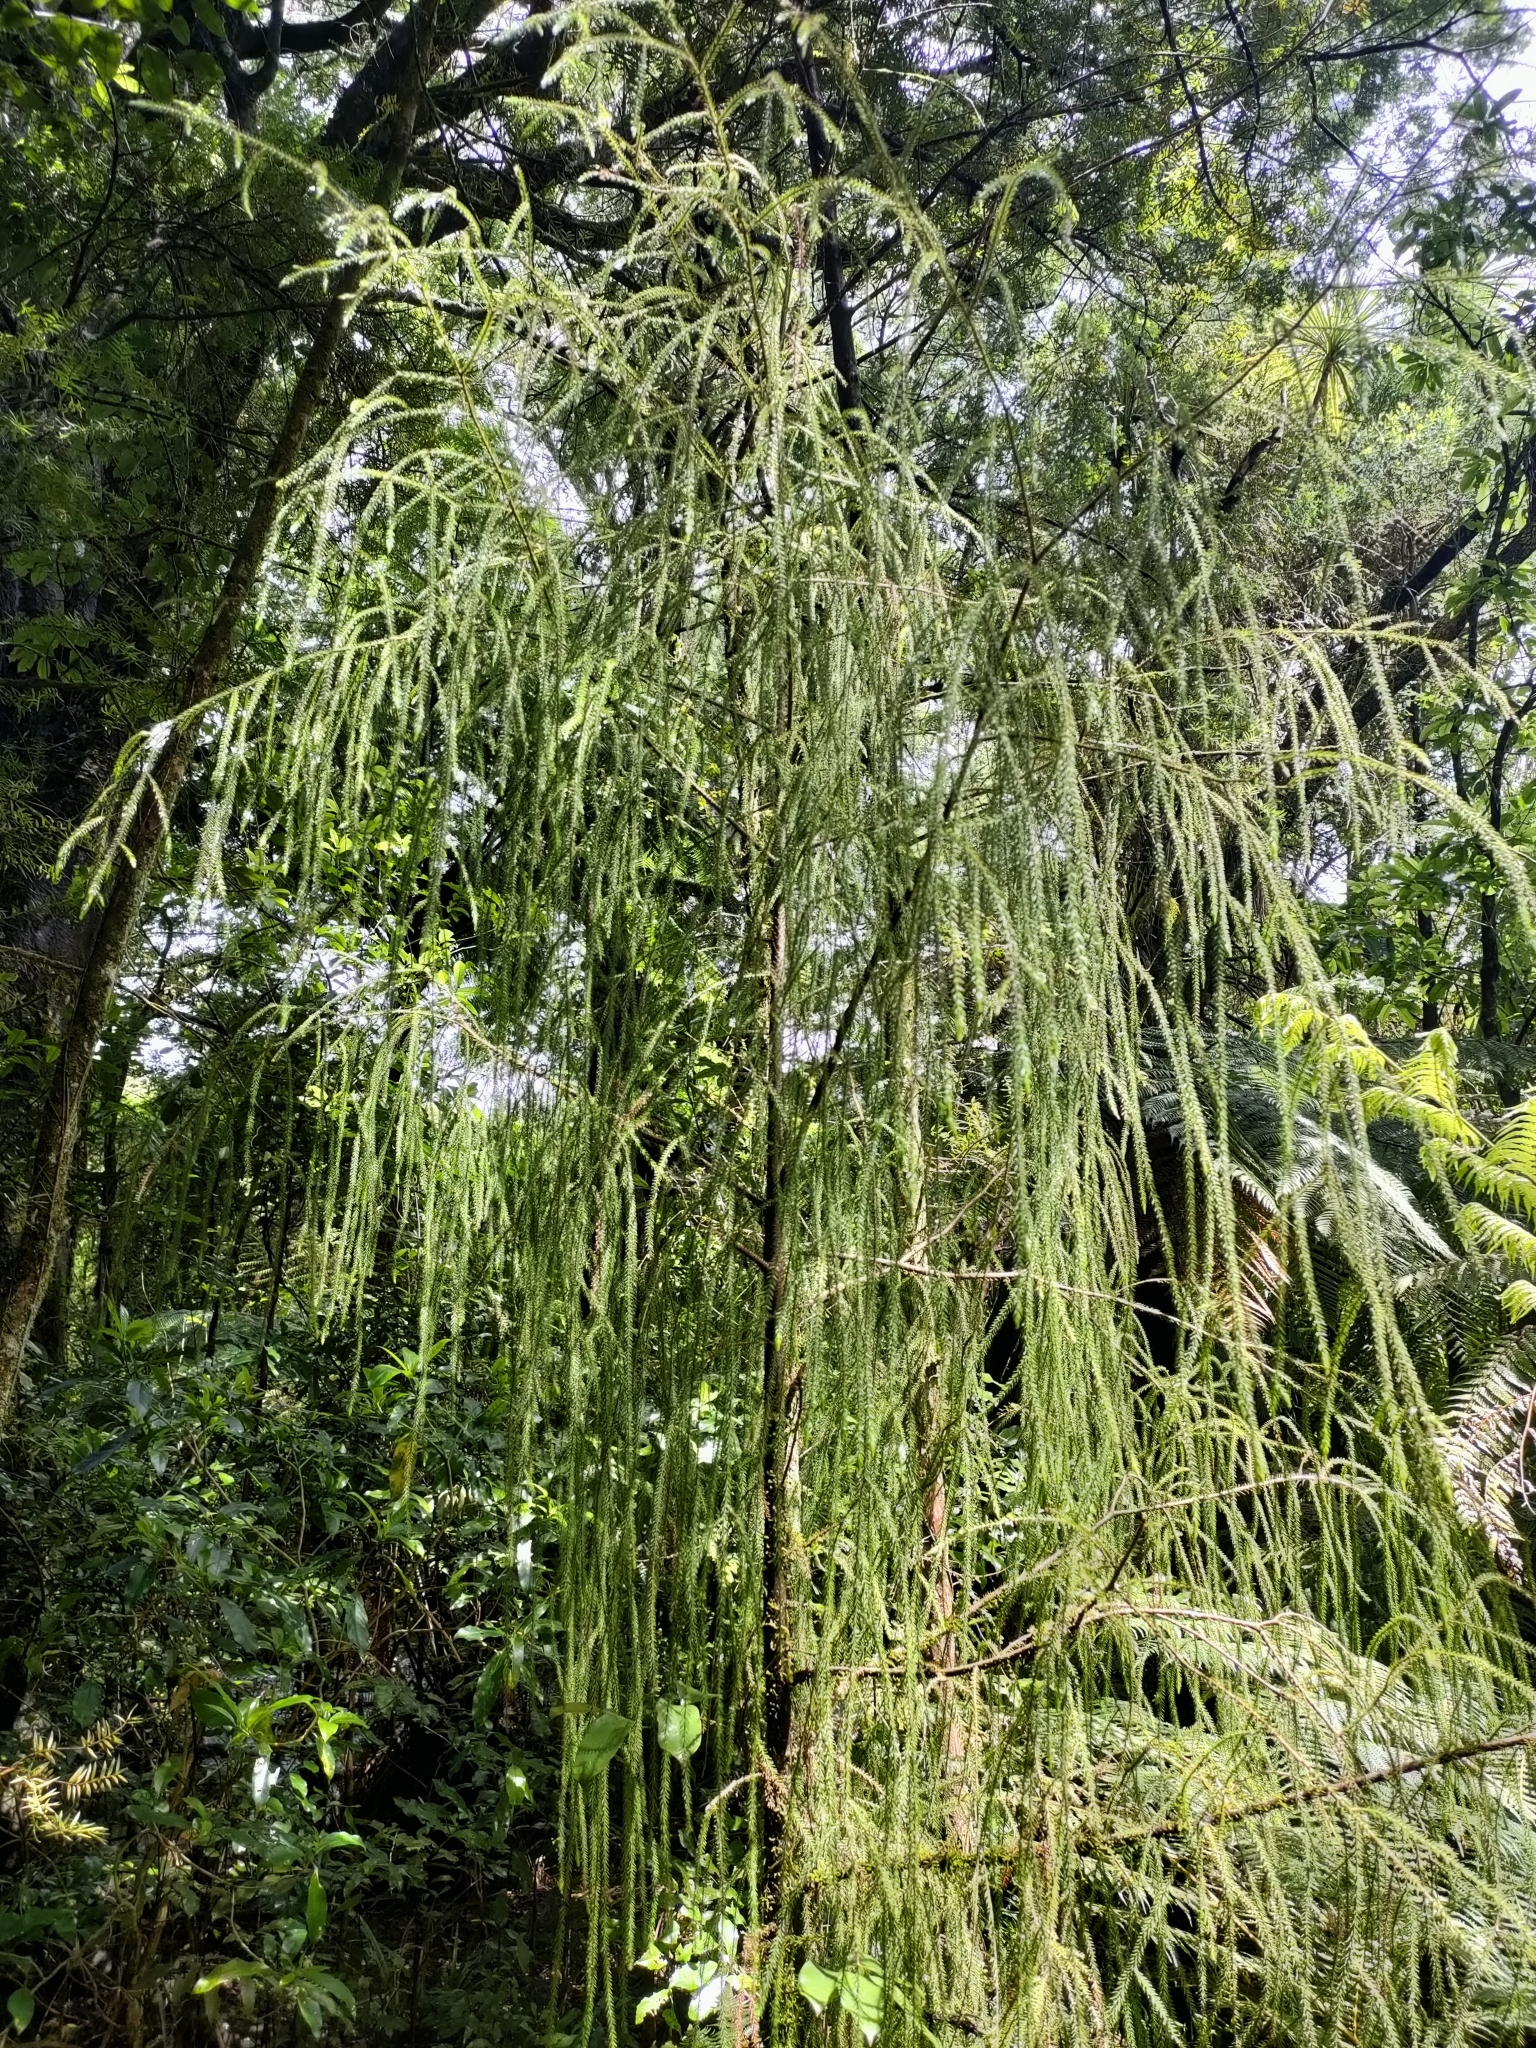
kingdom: Plantae
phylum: Tracheophyta
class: Pinopsida
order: Pinales
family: Podocarpaceae
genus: Dacrydium
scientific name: Dacrydium cupressinum
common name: Red pine
